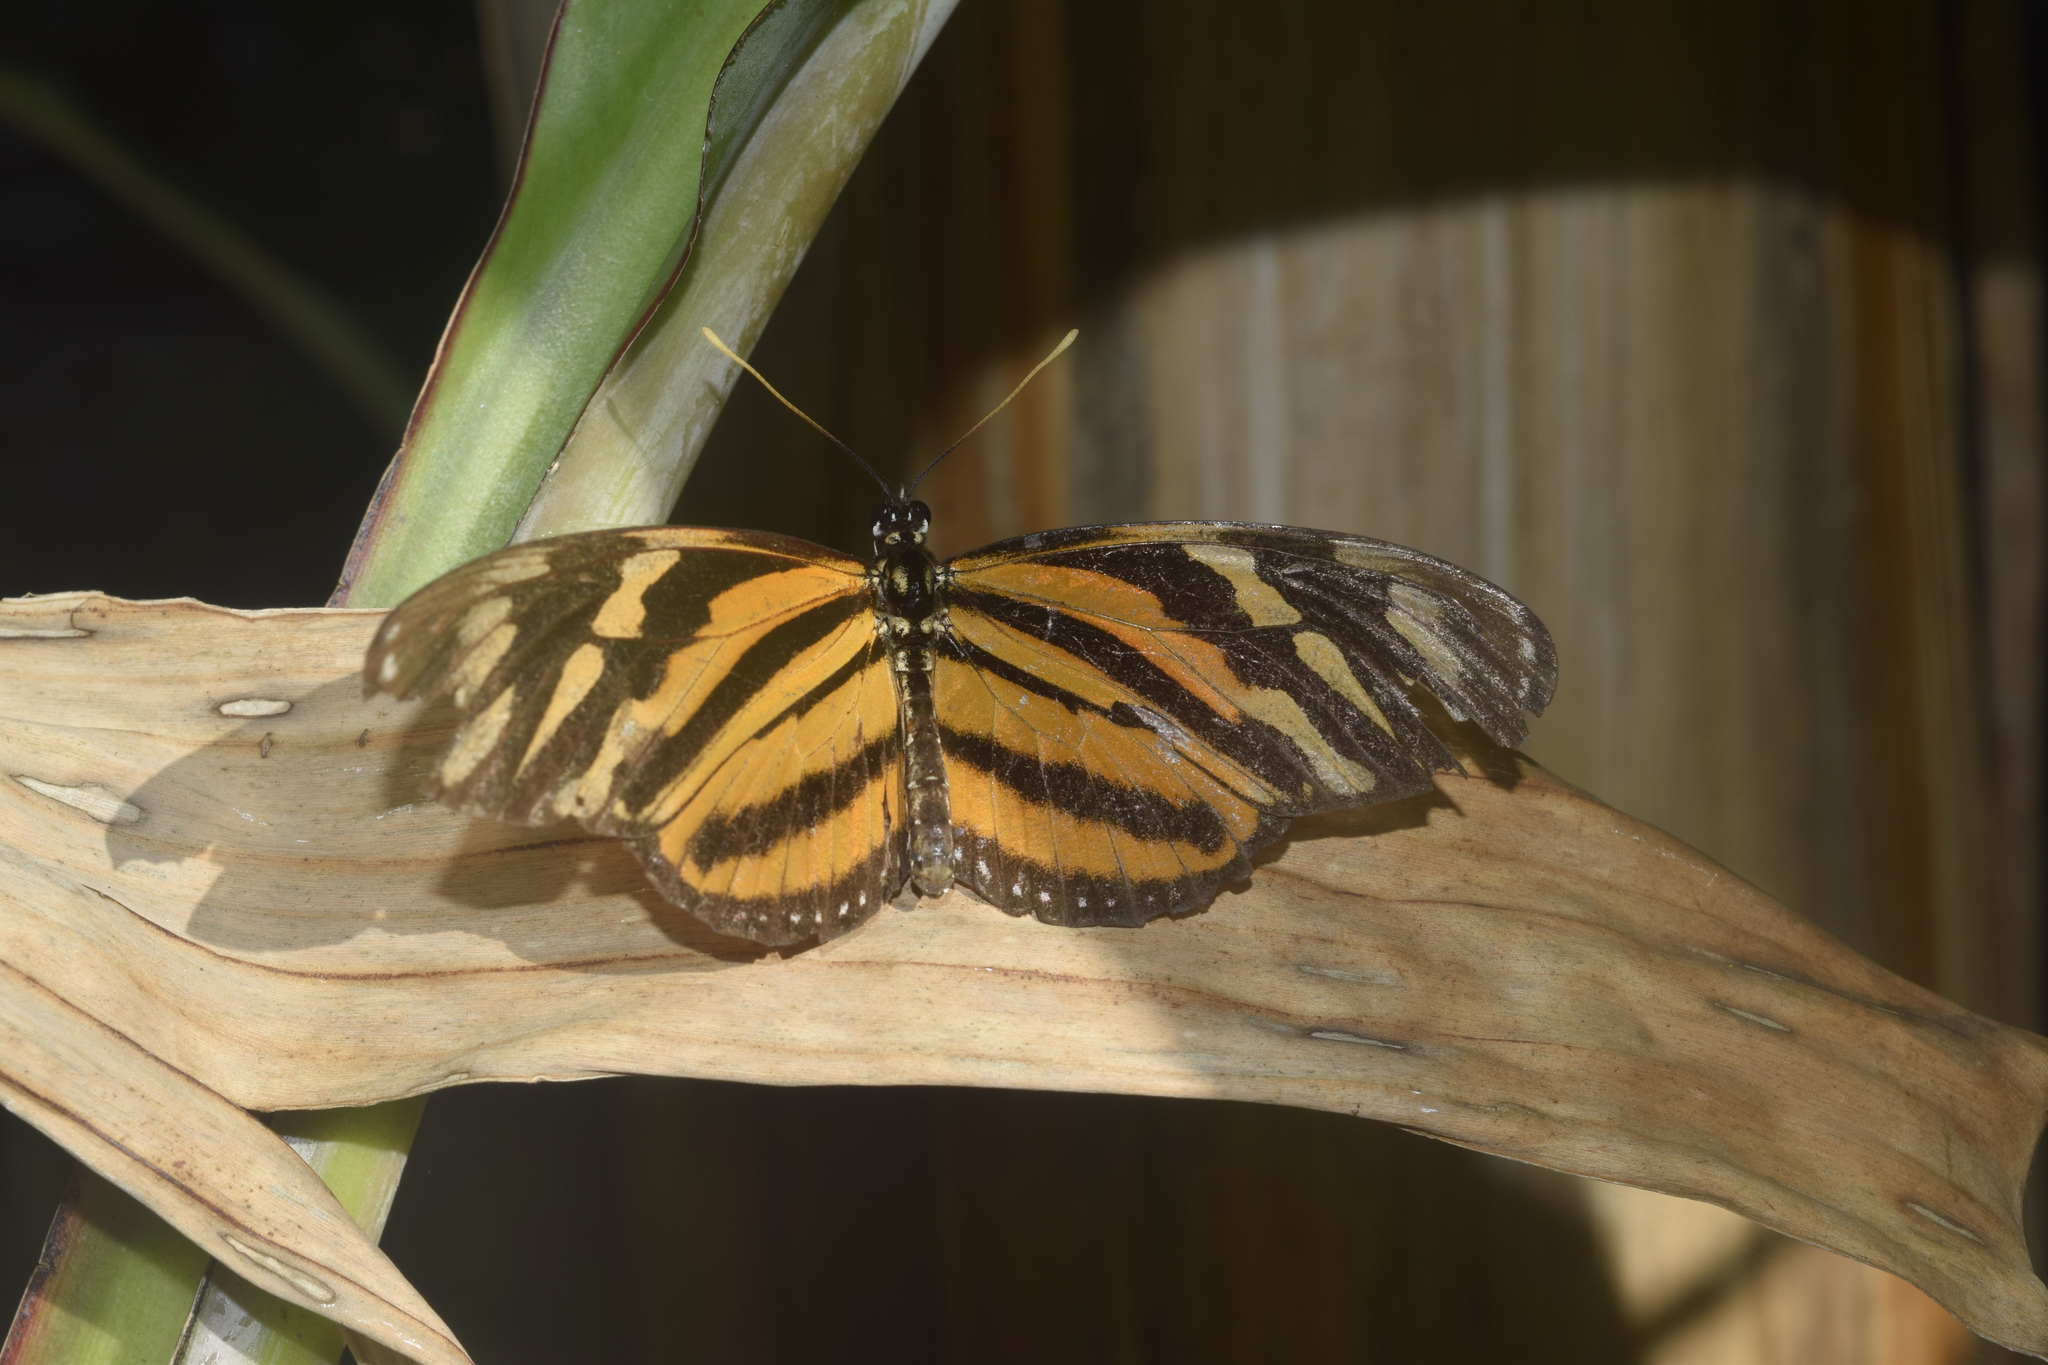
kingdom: Animalia
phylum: Arthropoda
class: Insecta
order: Lepidoptera
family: Nymphalidae
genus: Eueides
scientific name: Eueides isabella
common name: Isabella's longwing
